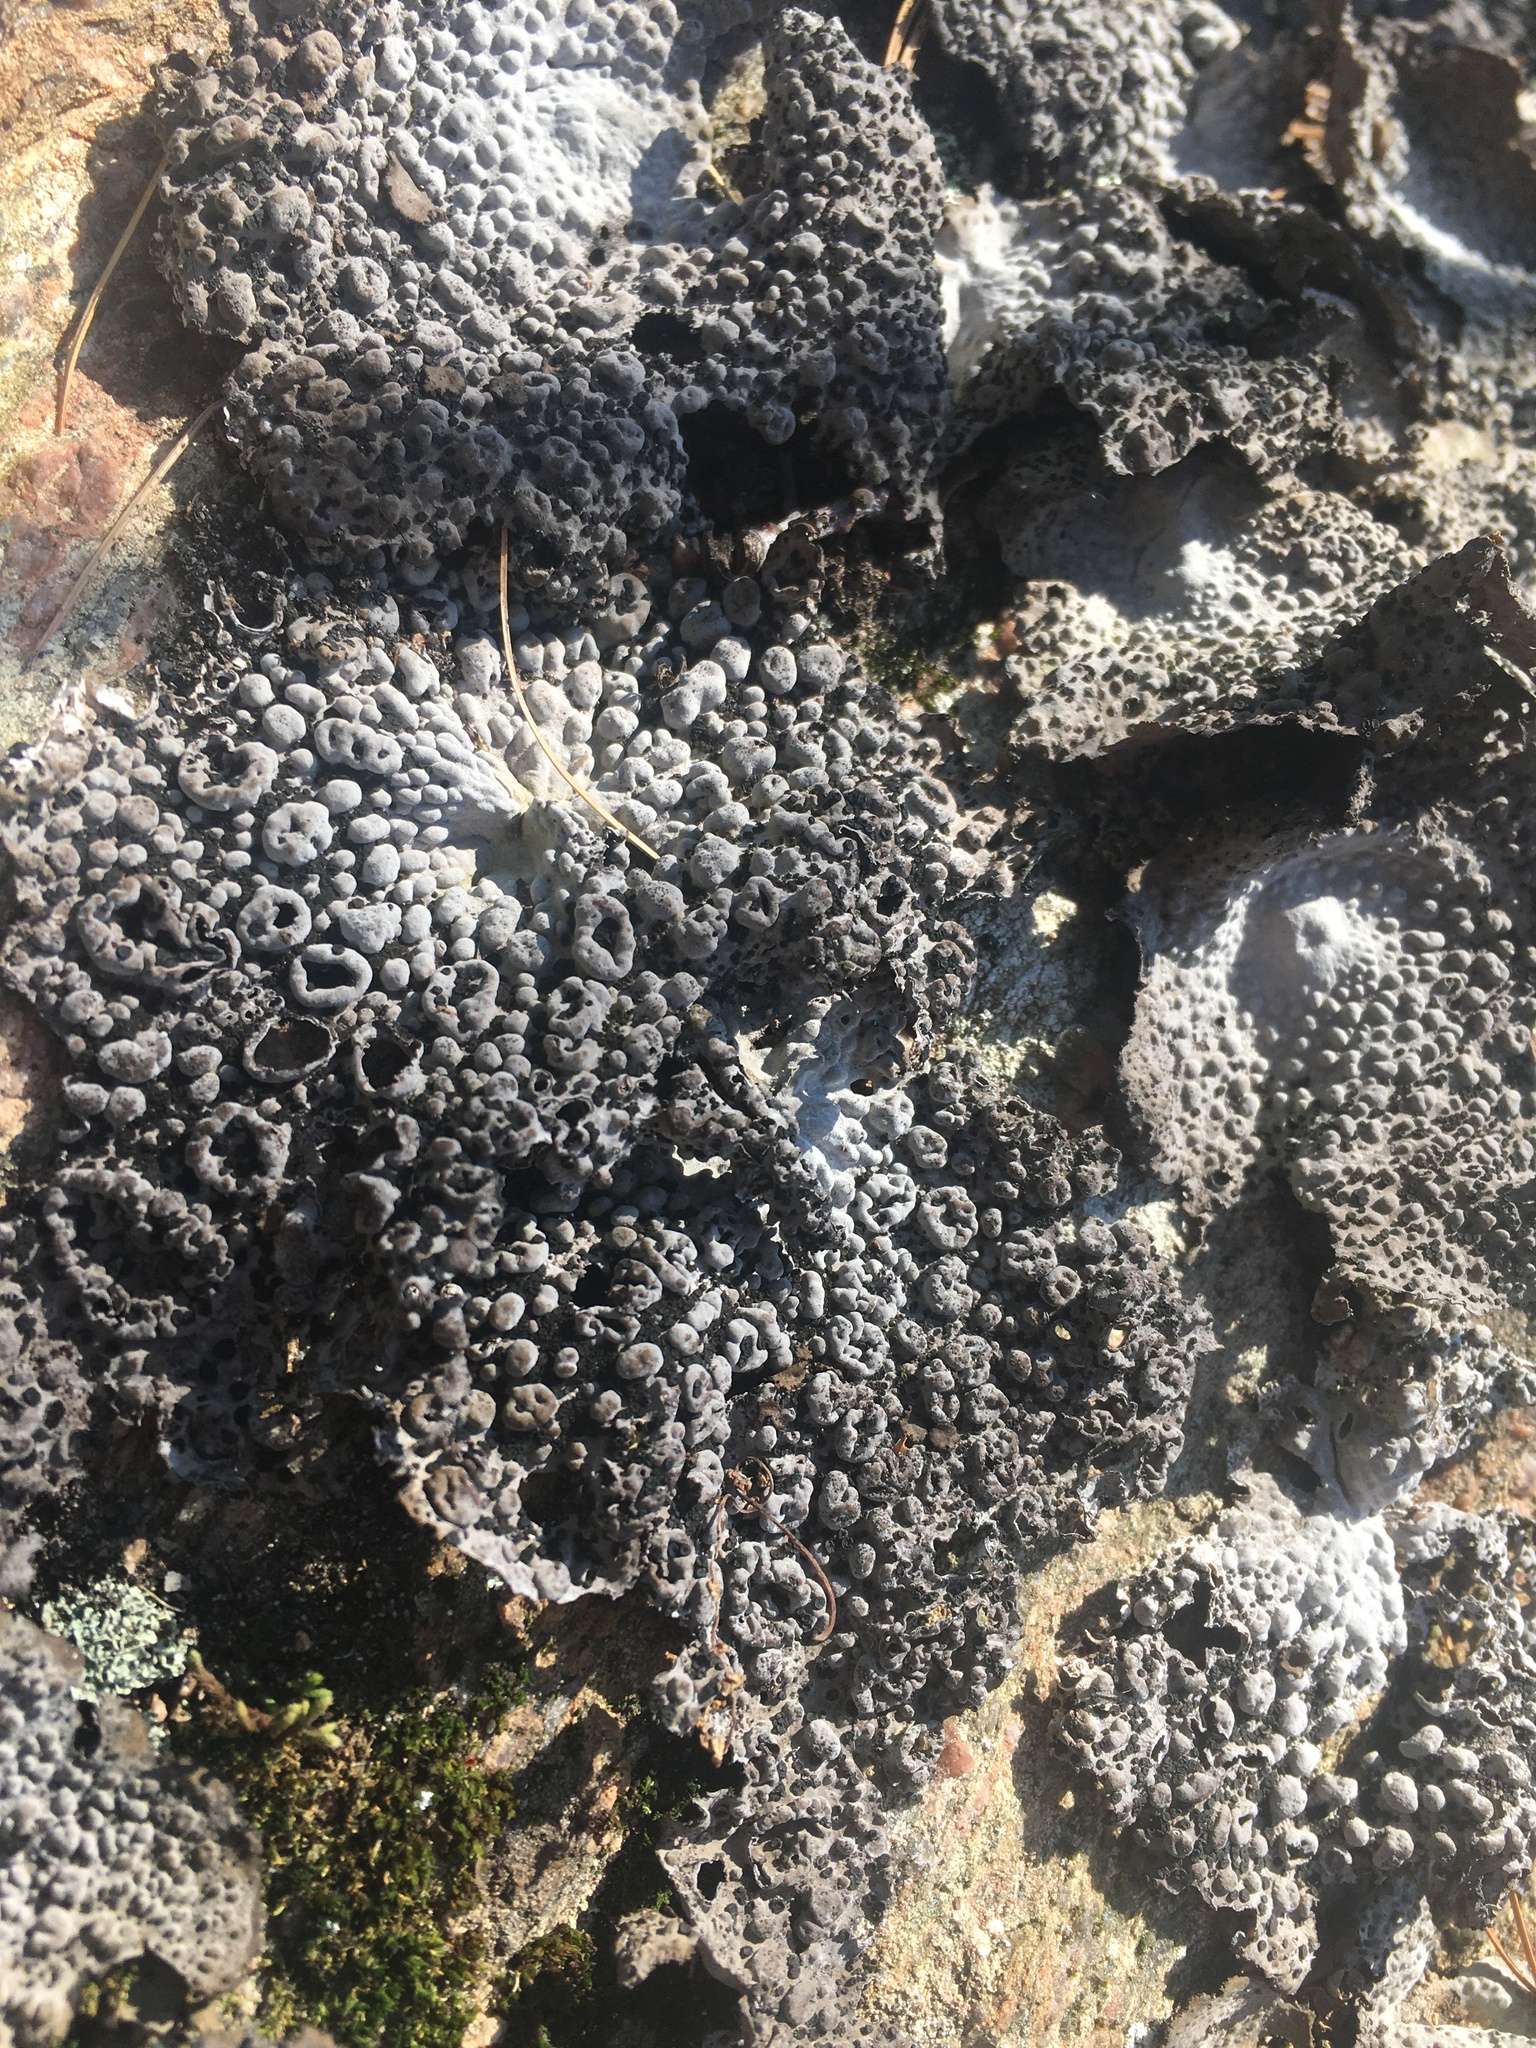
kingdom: Fungi
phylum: Ascomycota
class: Lecanoromycetes
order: Umbilicariales
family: Umbilicariaceae
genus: Lasallia
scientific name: Lasallia papulosa
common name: Common toadskin lichen
